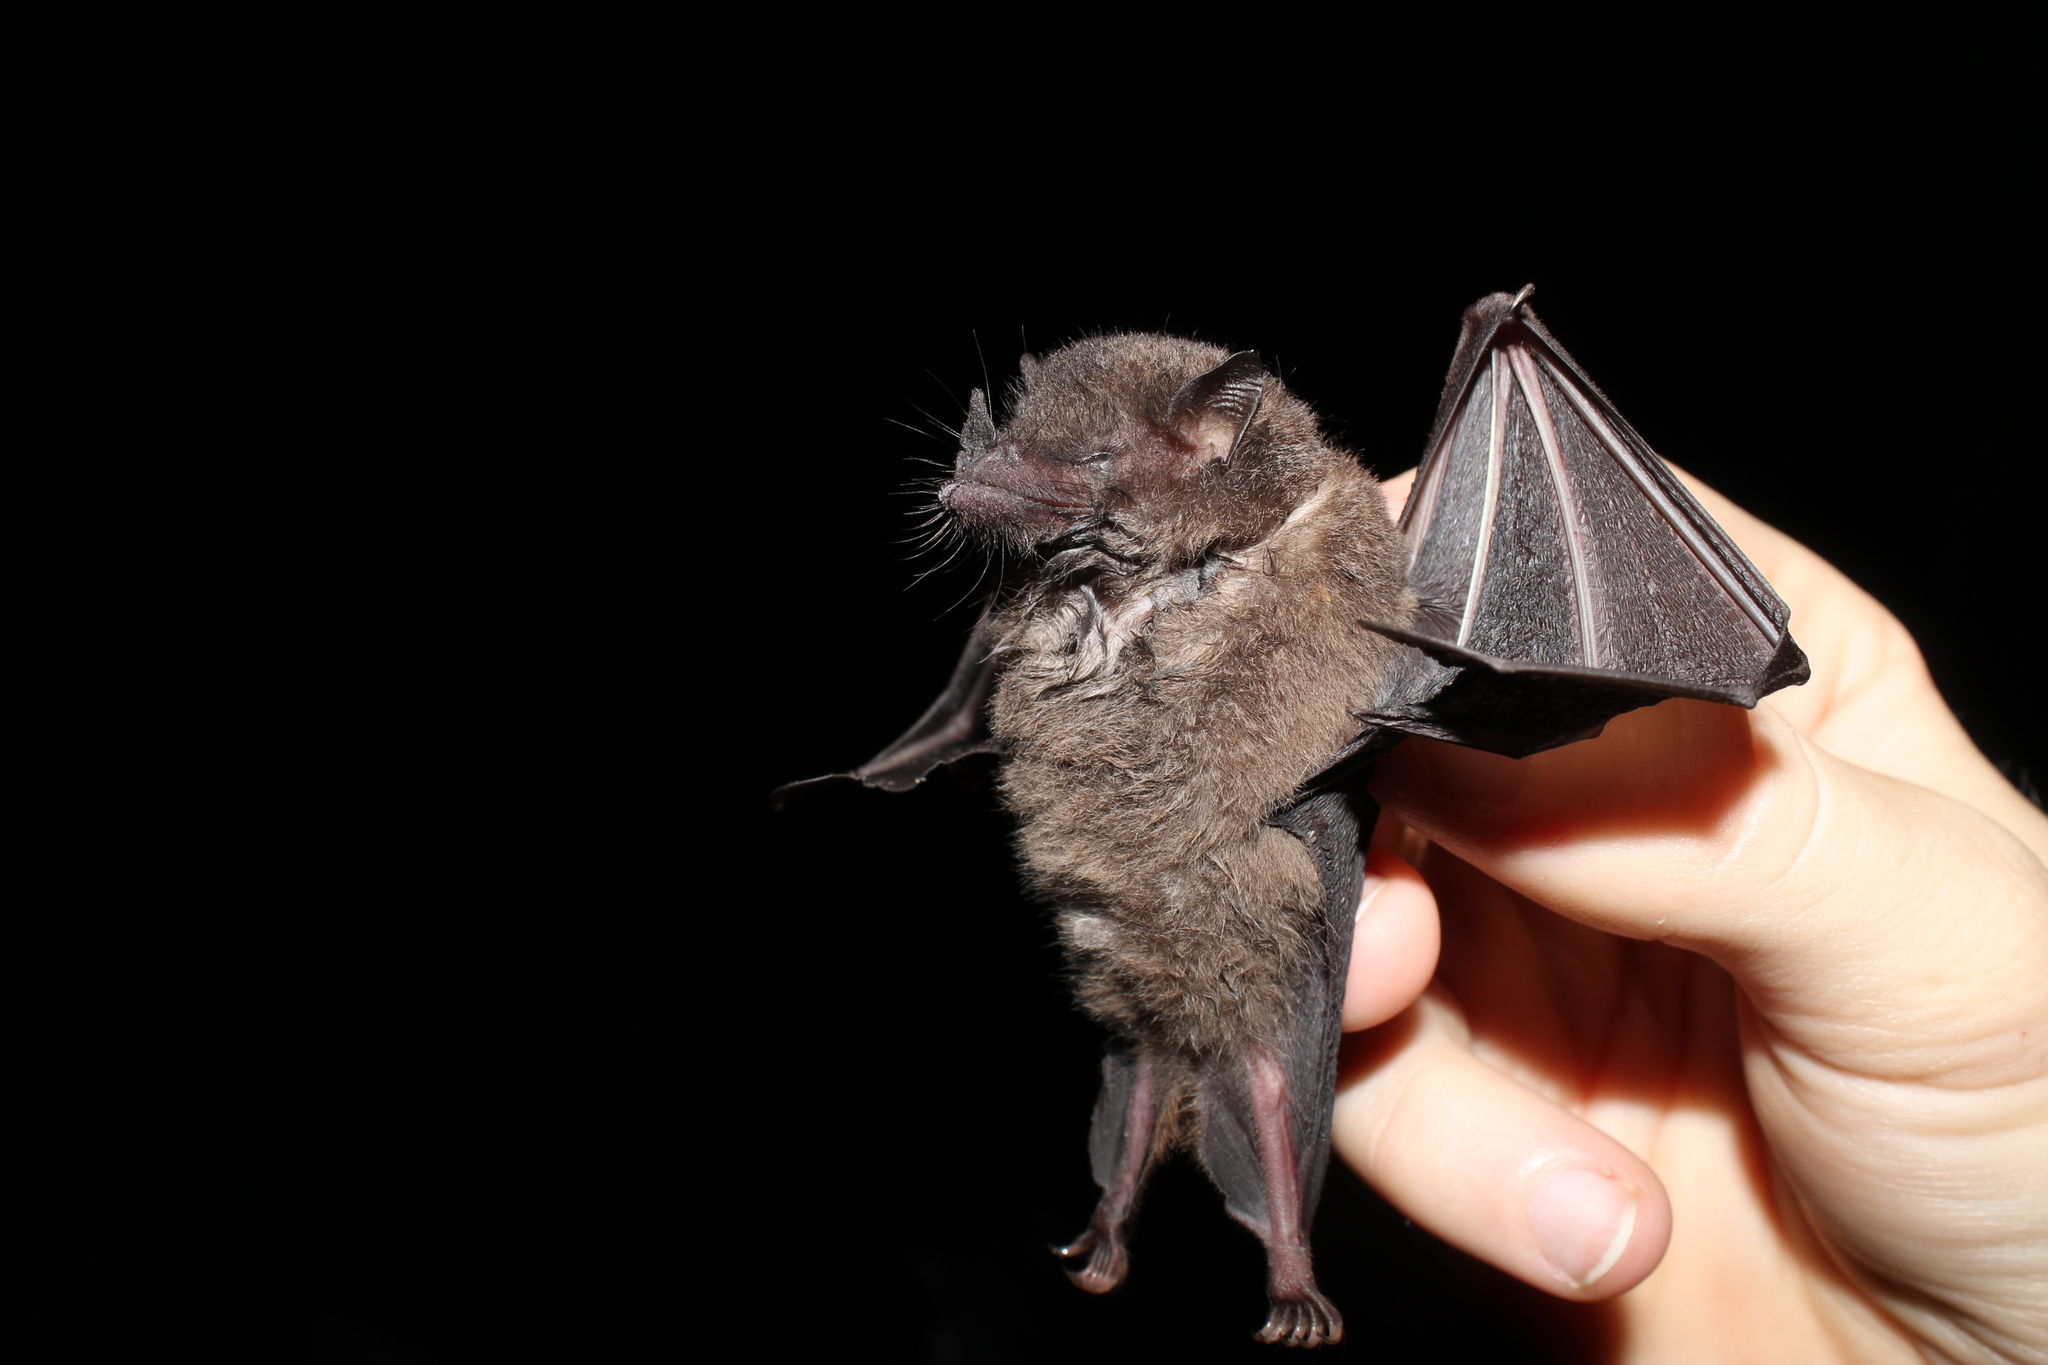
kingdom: Animalia
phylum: Chordata
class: Mammalia
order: Chiroptera
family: Phyllostomidae
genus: Anoura
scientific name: Anoura caudifer
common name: Tailed tailless bat
